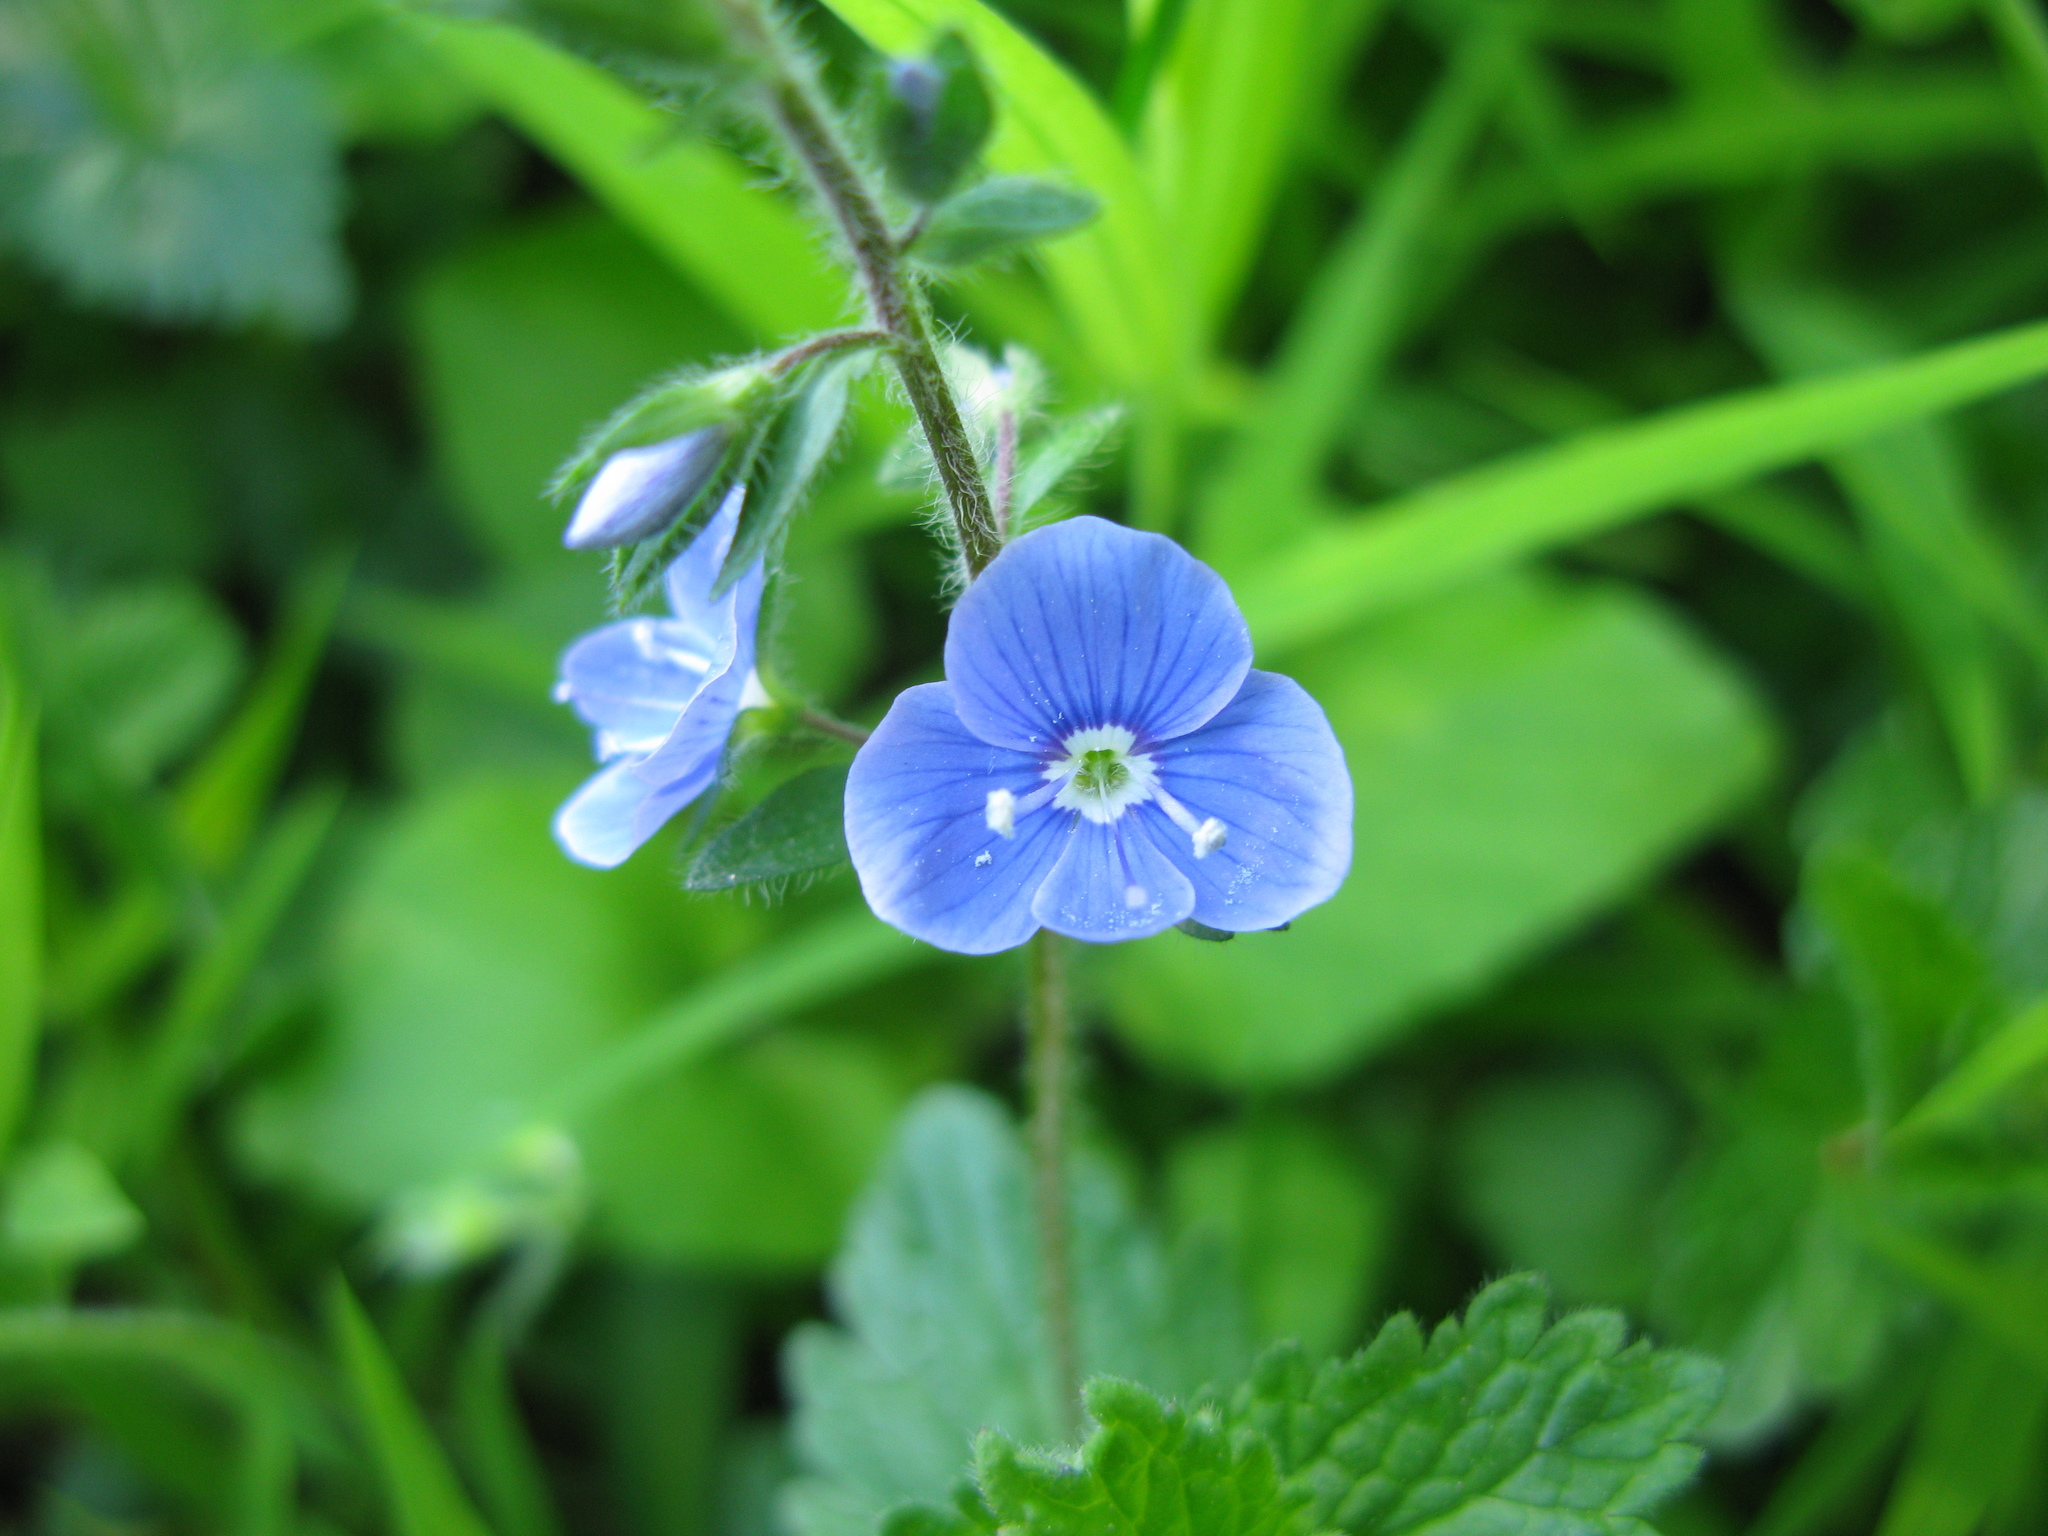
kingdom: Plantae
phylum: Tracheophyta
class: Magnoliopsida
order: Lamiales
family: Plantaginaceae
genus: Veronica
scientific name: Veronica chamaedrys
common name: Germander speedwell
